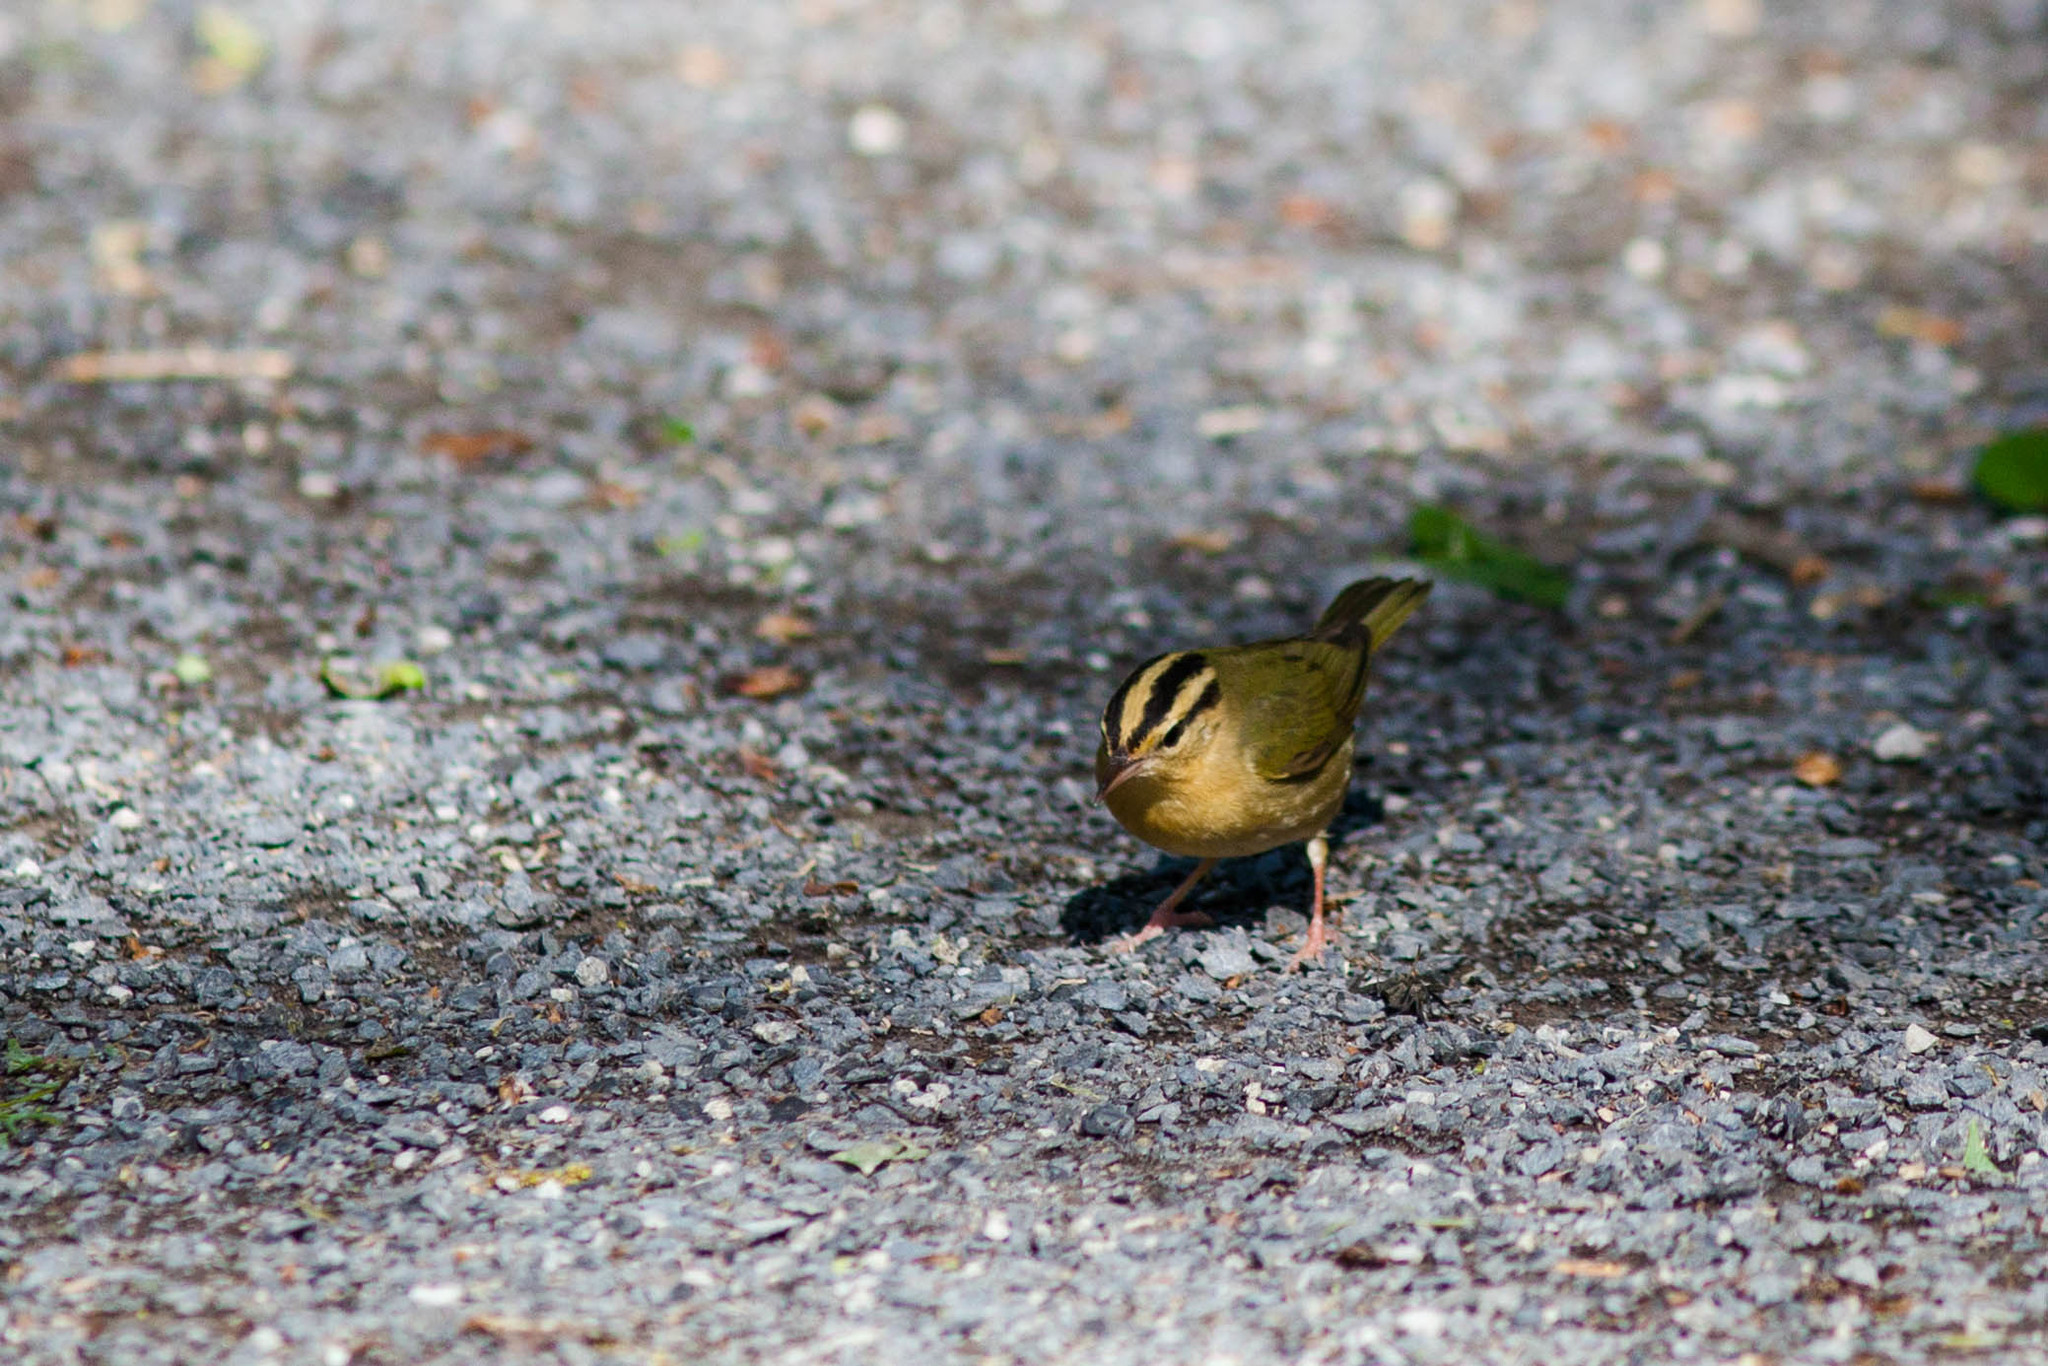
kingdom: Animalia
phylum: Chordata
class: Aves
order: Passeriformes
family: Parulidae
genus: Helmitheros
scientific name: Helmitheros vermivorum
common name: Worm-eating warbler
